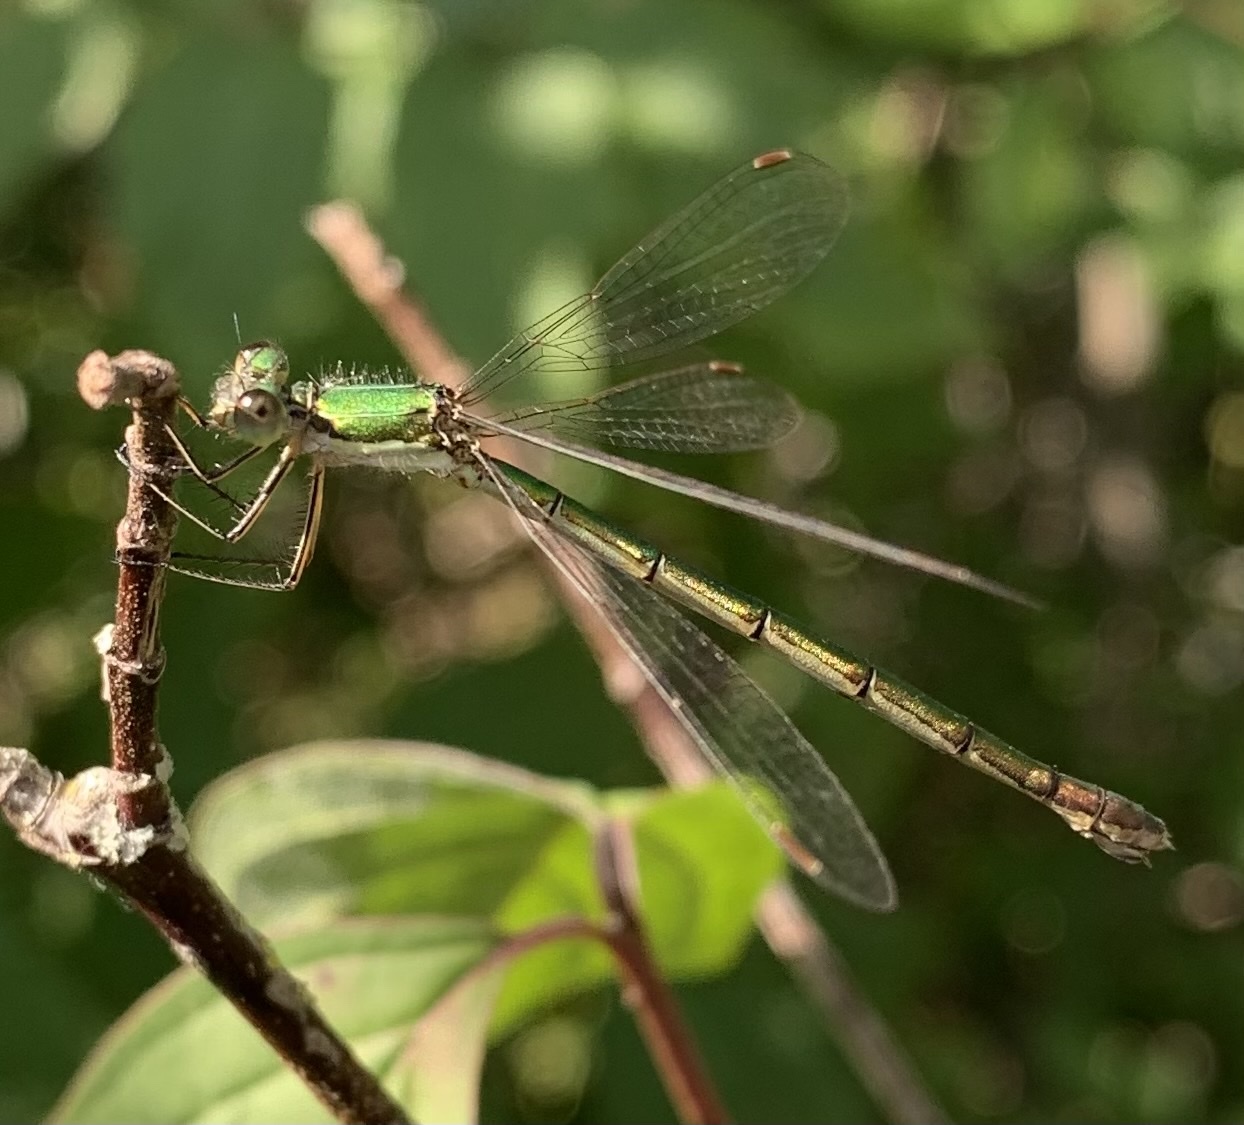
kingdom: Animalia
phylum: Arthropoda
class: Insecta
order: Odonata
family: Lestidae
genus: Lestes
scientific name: Lestes virens
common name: Small emerald spreadwing
